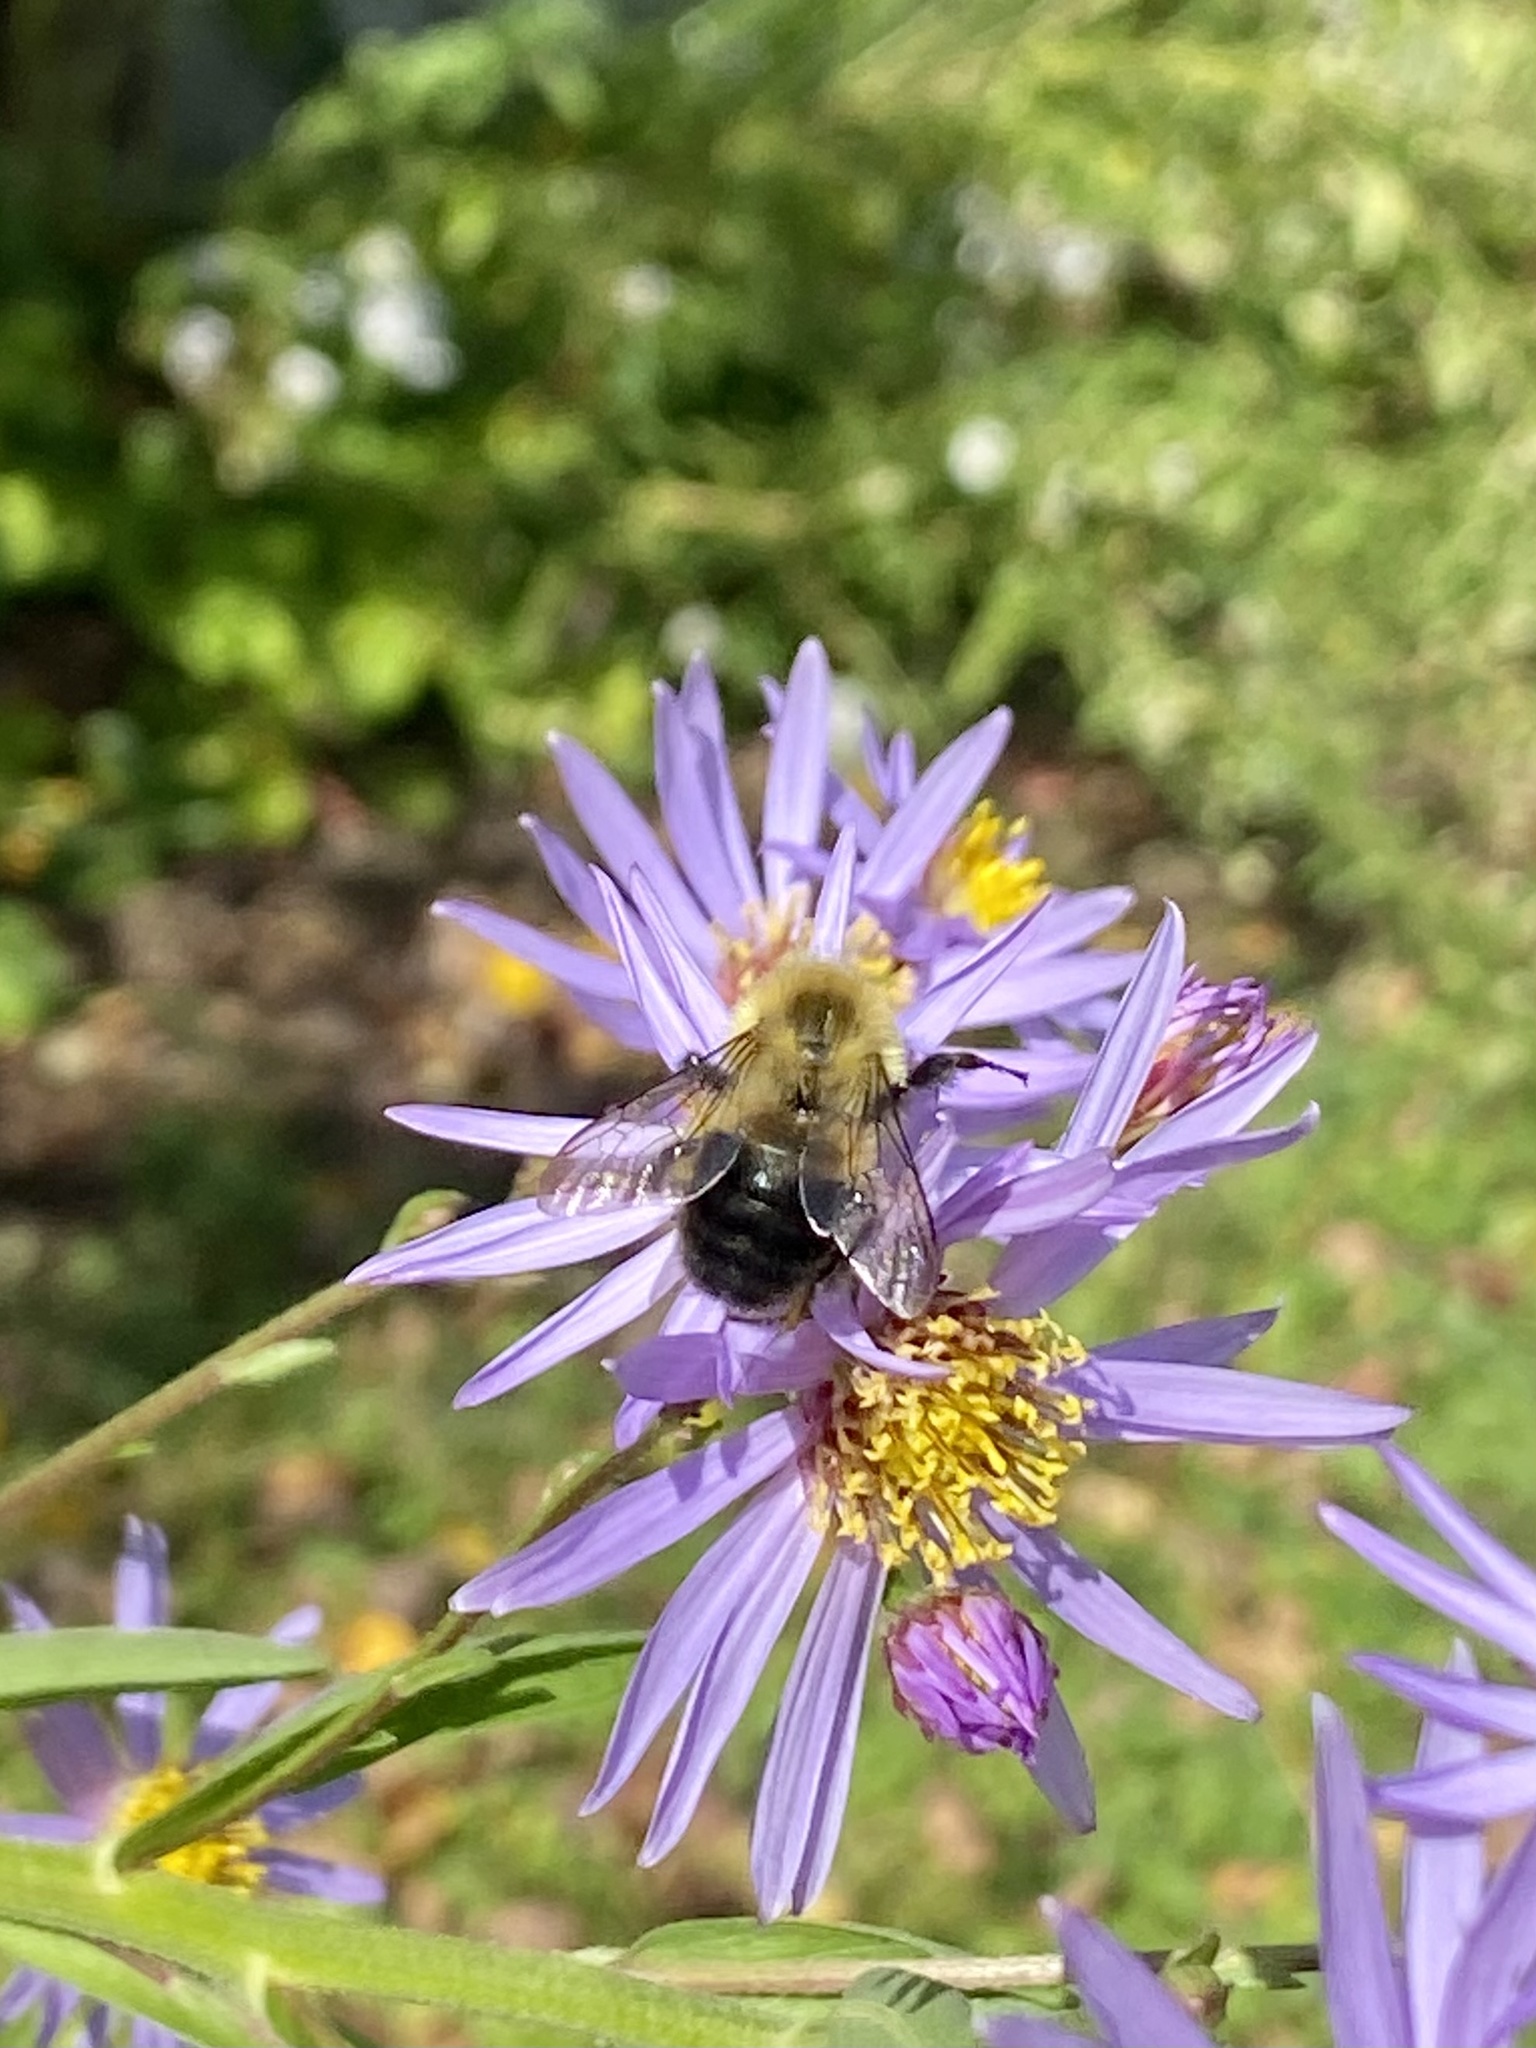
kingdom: Animalia
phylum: Arthropoda
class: Insecta
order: Hymenoptera
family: Apidae
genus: Bombus
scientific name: Bombus impatiens
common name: Common eastern bumble bee
